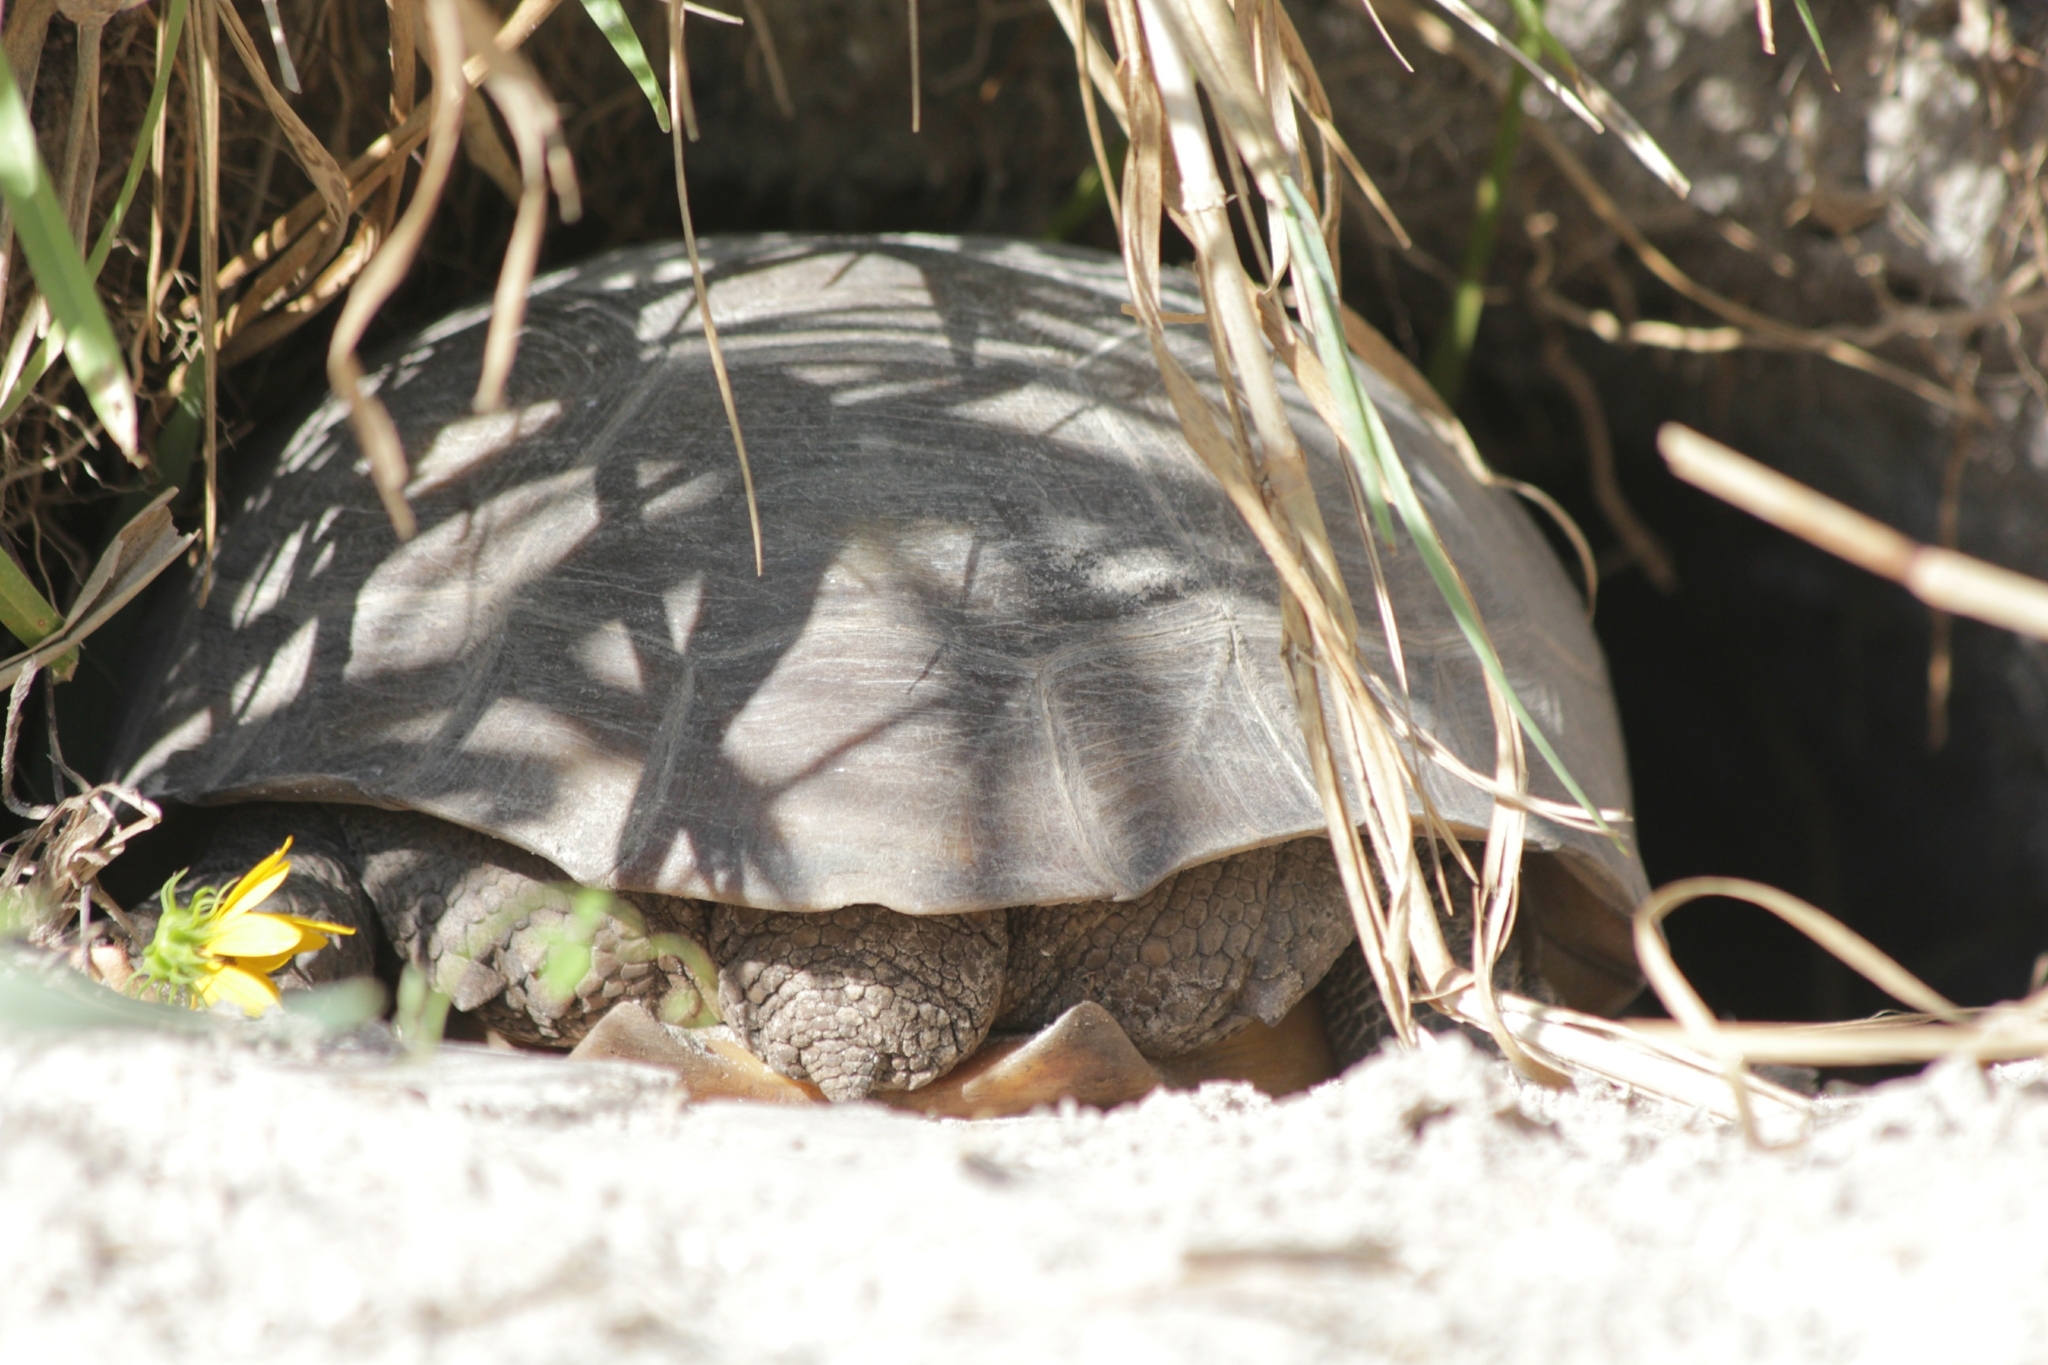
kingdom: Animalia
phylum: Chordata
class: Testudines
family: Testudinidae
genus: Gopherus
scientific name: Gopherus polyphemus
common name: Florida gopher tortoise
